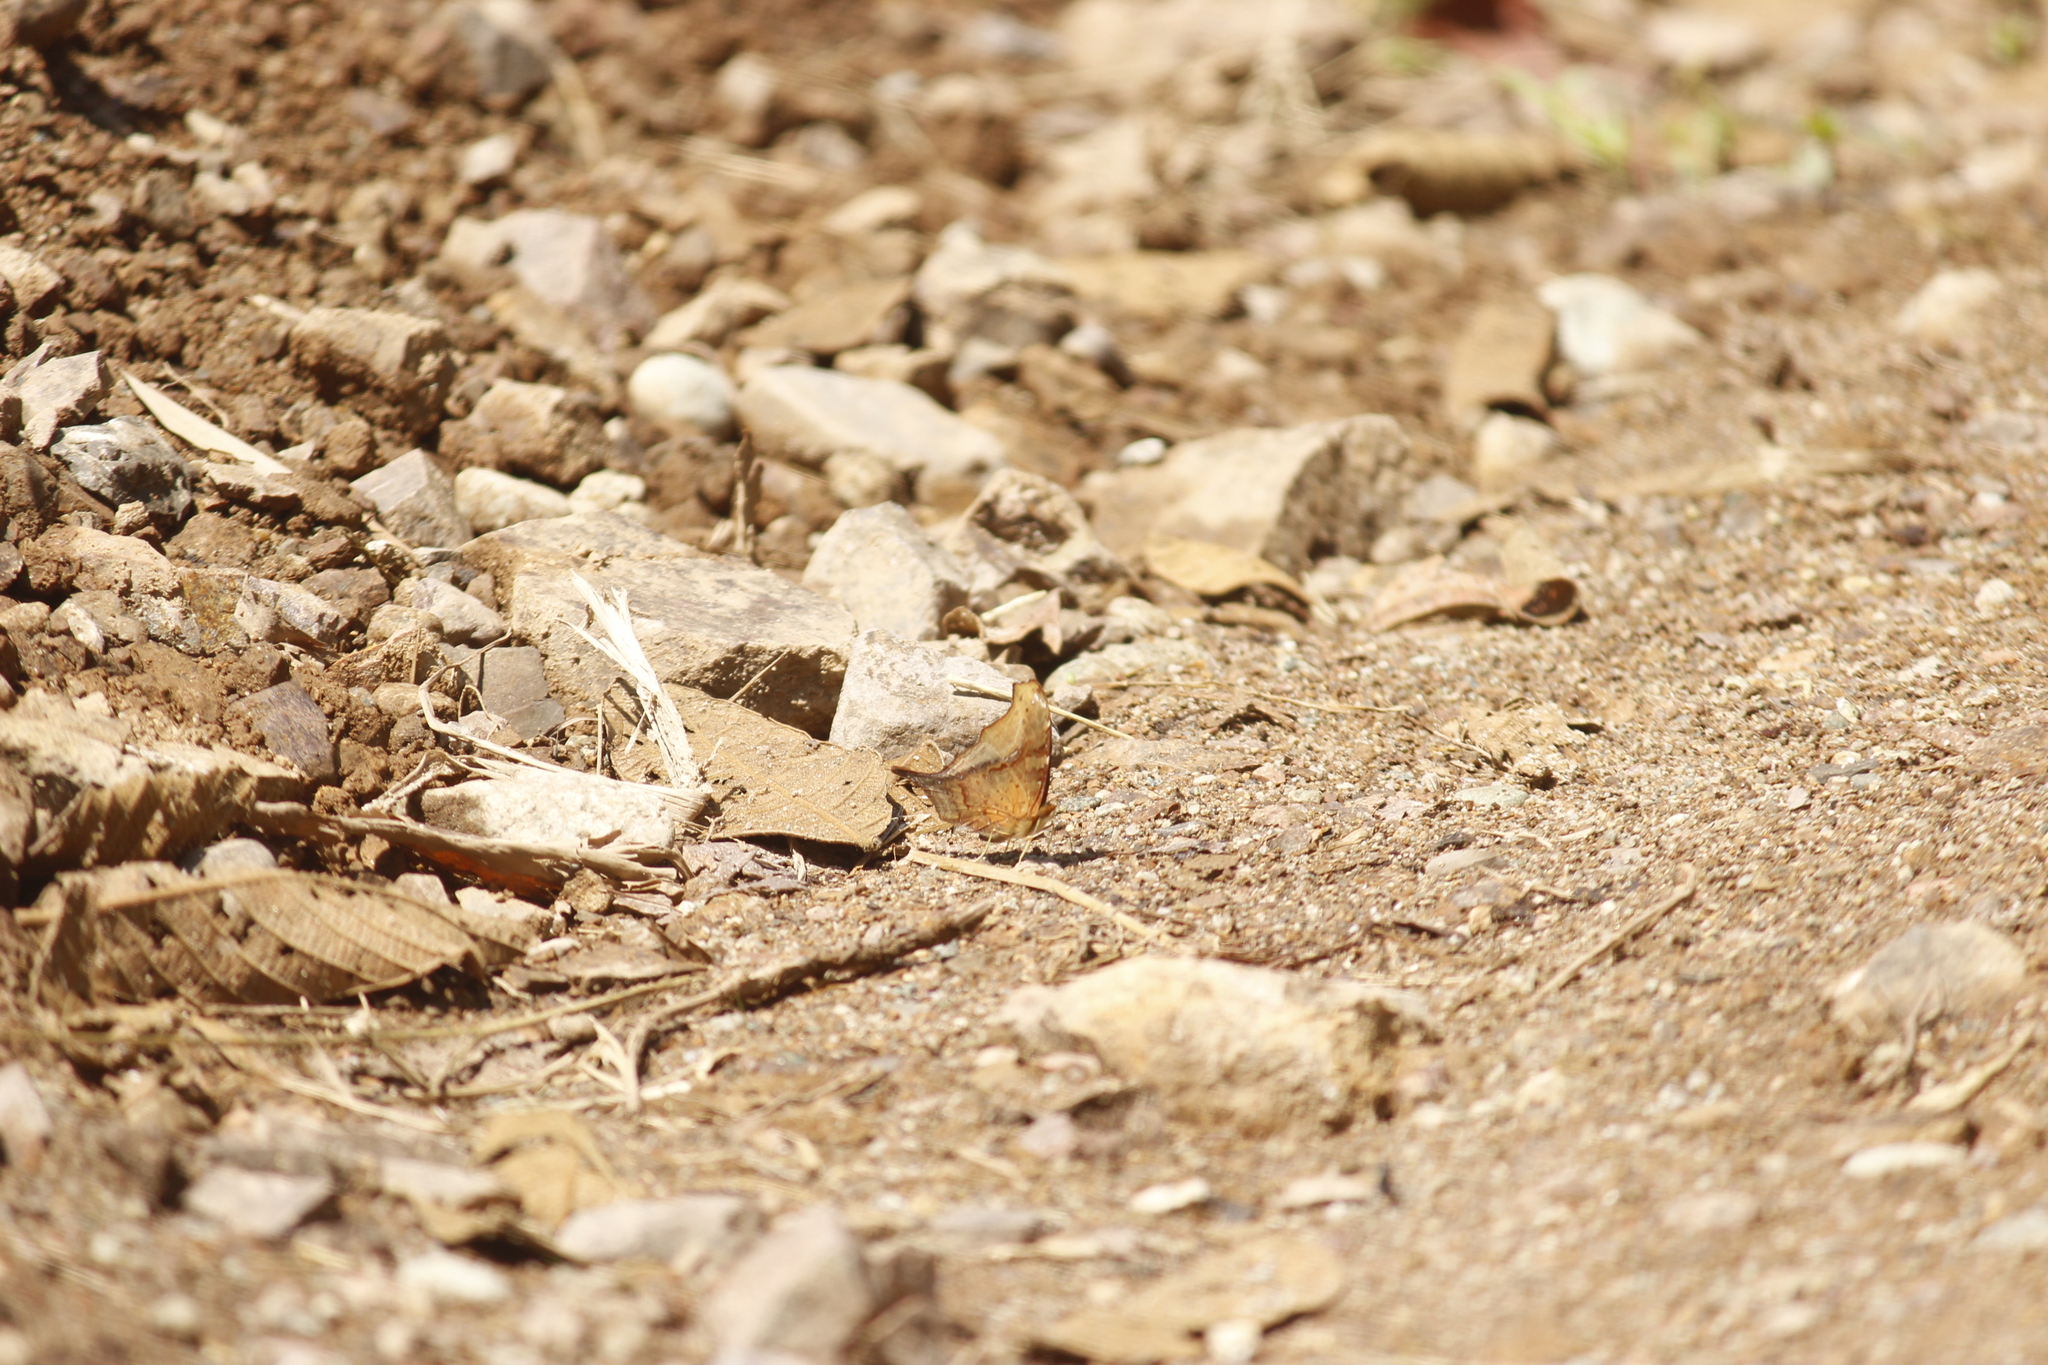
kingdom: Animalia
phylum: Arthropoda
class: Insecta
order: Lepidoptera
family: Nymphalidae
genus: Hypanartia
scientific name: Hypanartia dione
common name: Banded mapwing
